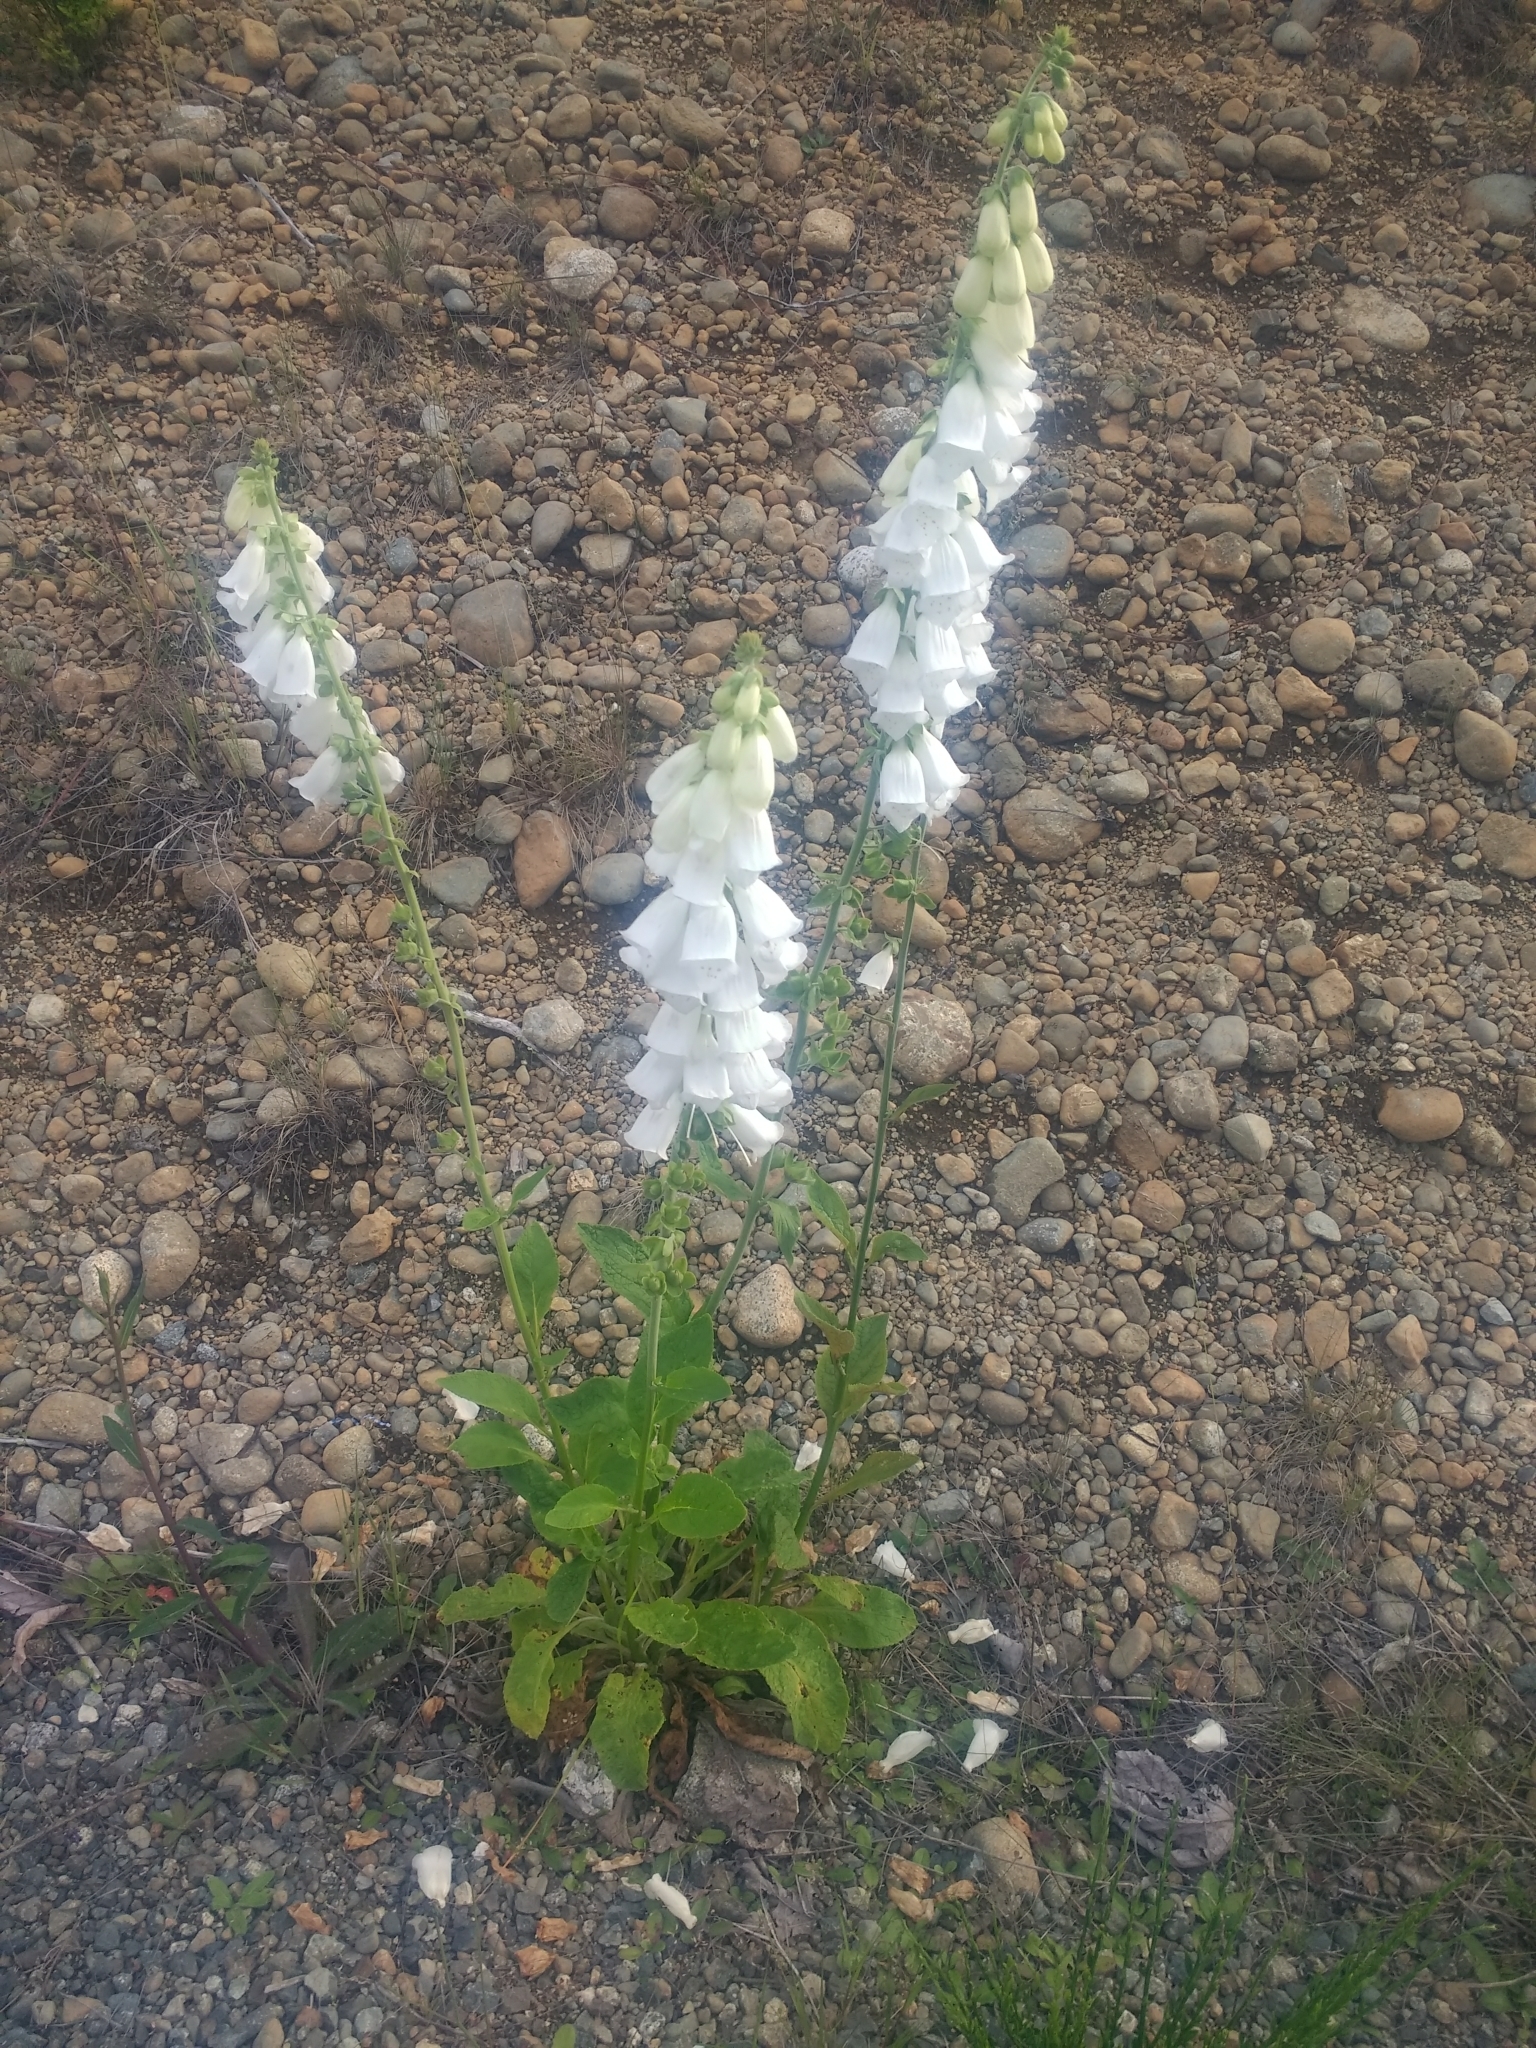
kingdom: Plantae
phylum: Tracheophyta
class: Magnoliopsida
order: Lamiales
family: Plantaginaceae
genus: Digitalis
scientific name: Digitalis purpurea
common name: Foxglove
